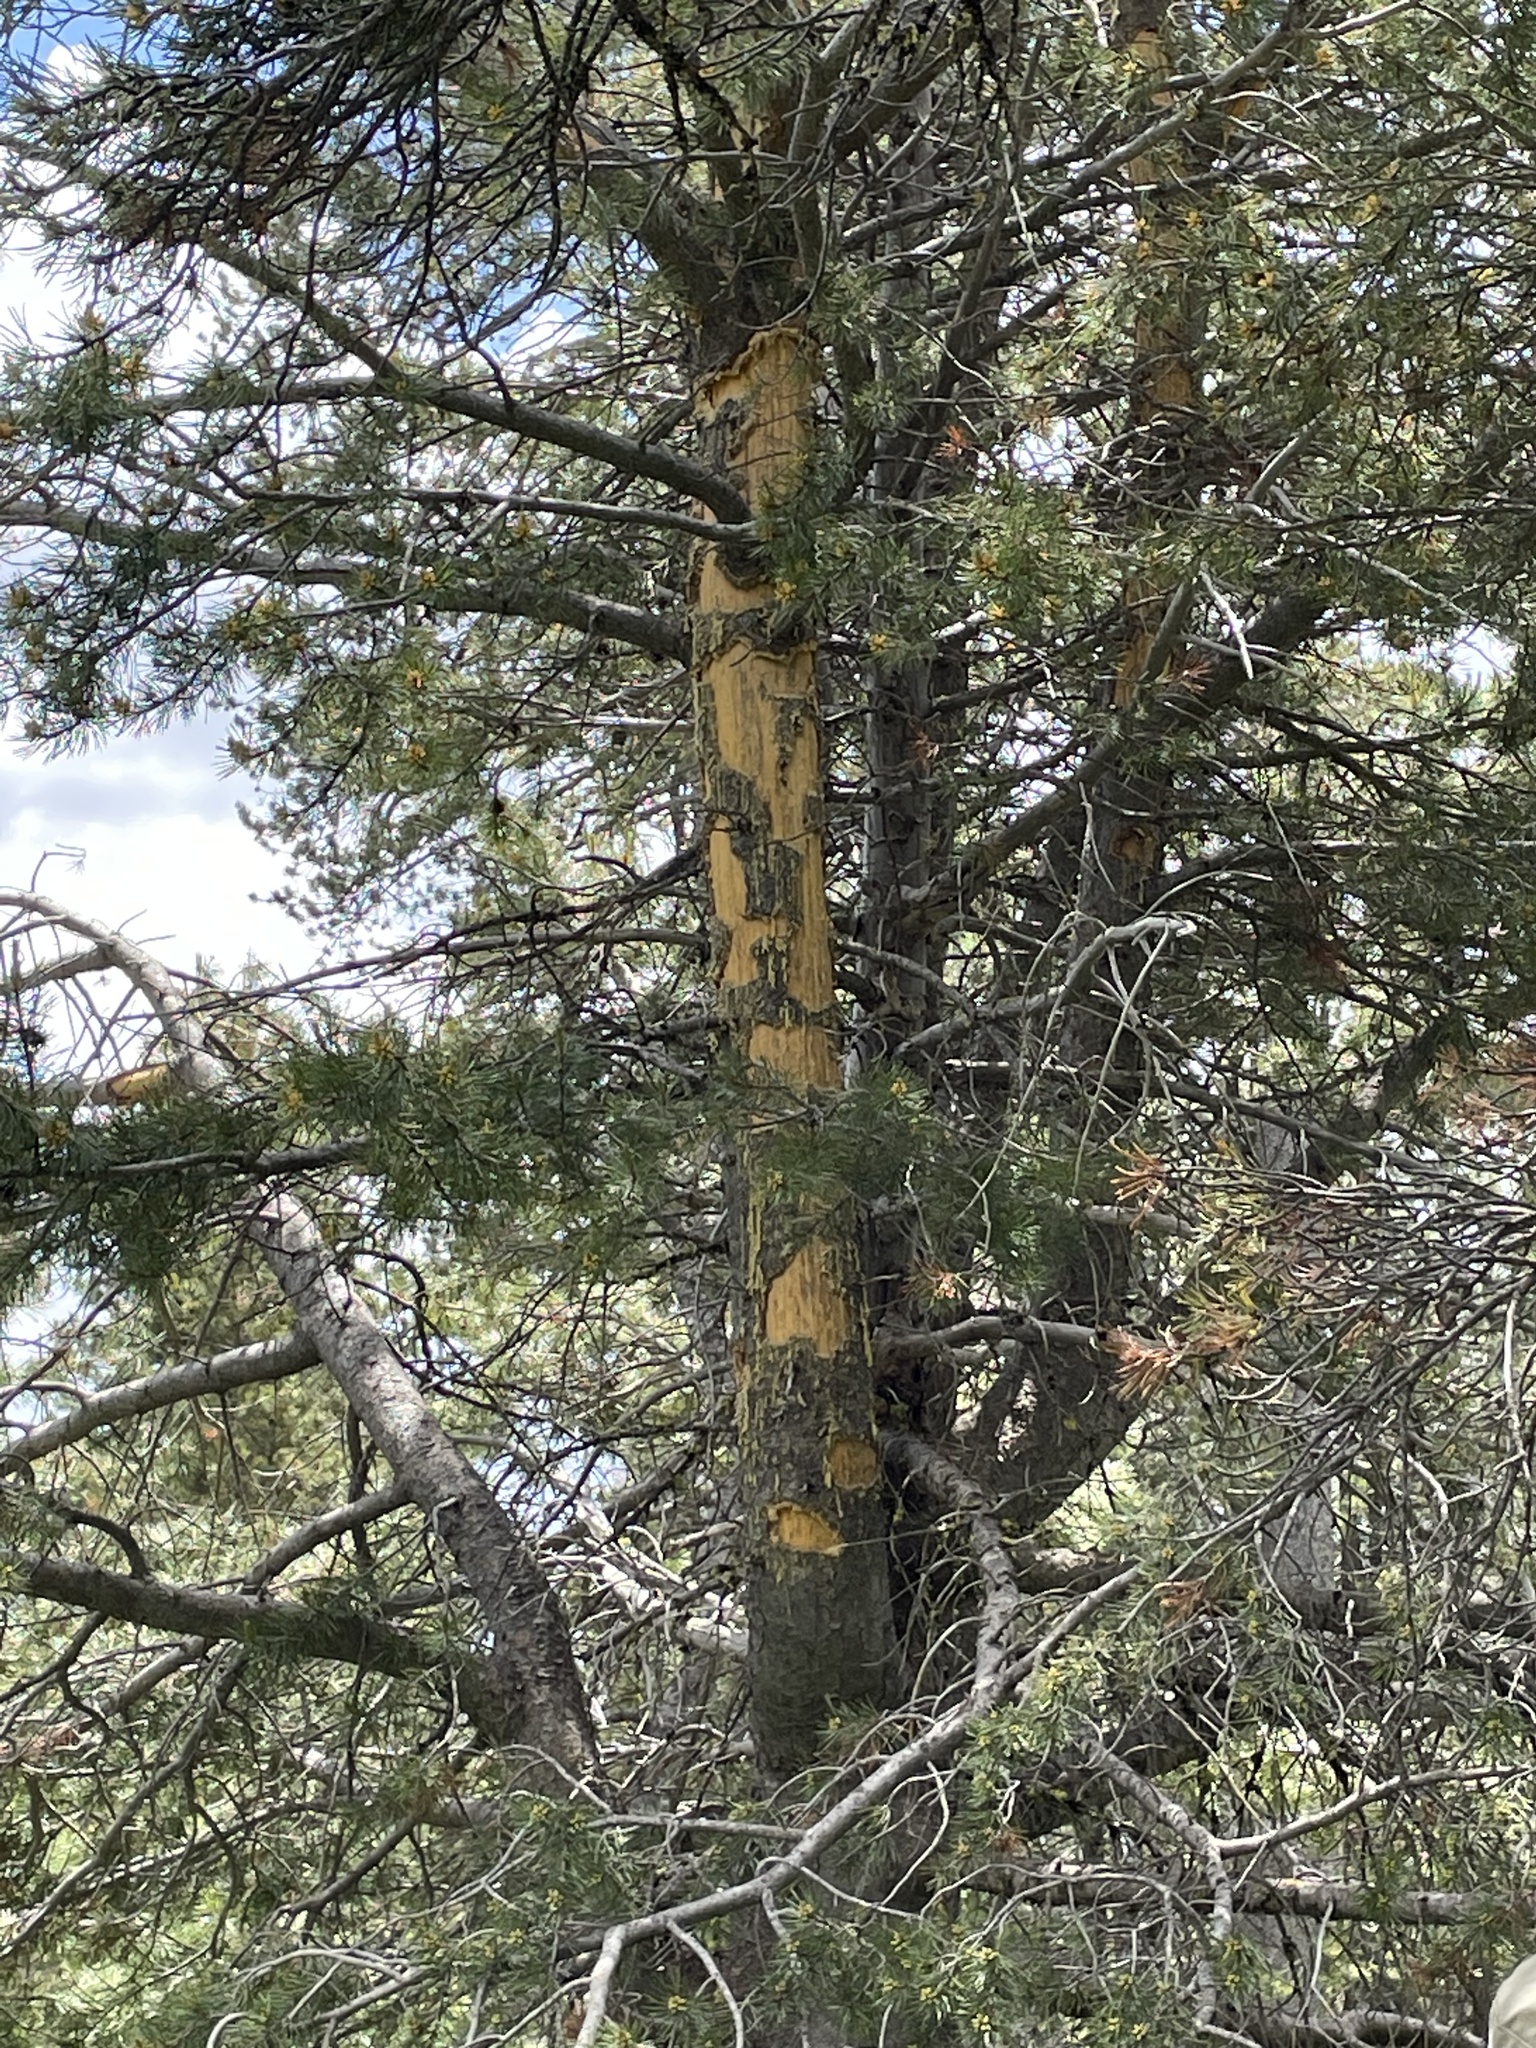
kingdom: Animalia
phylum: Chordata
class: Mammalia
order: Rodentia
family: Erethizontidae
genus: Erethizon
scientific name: Erethizon dorsatus
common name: North american porcupine
